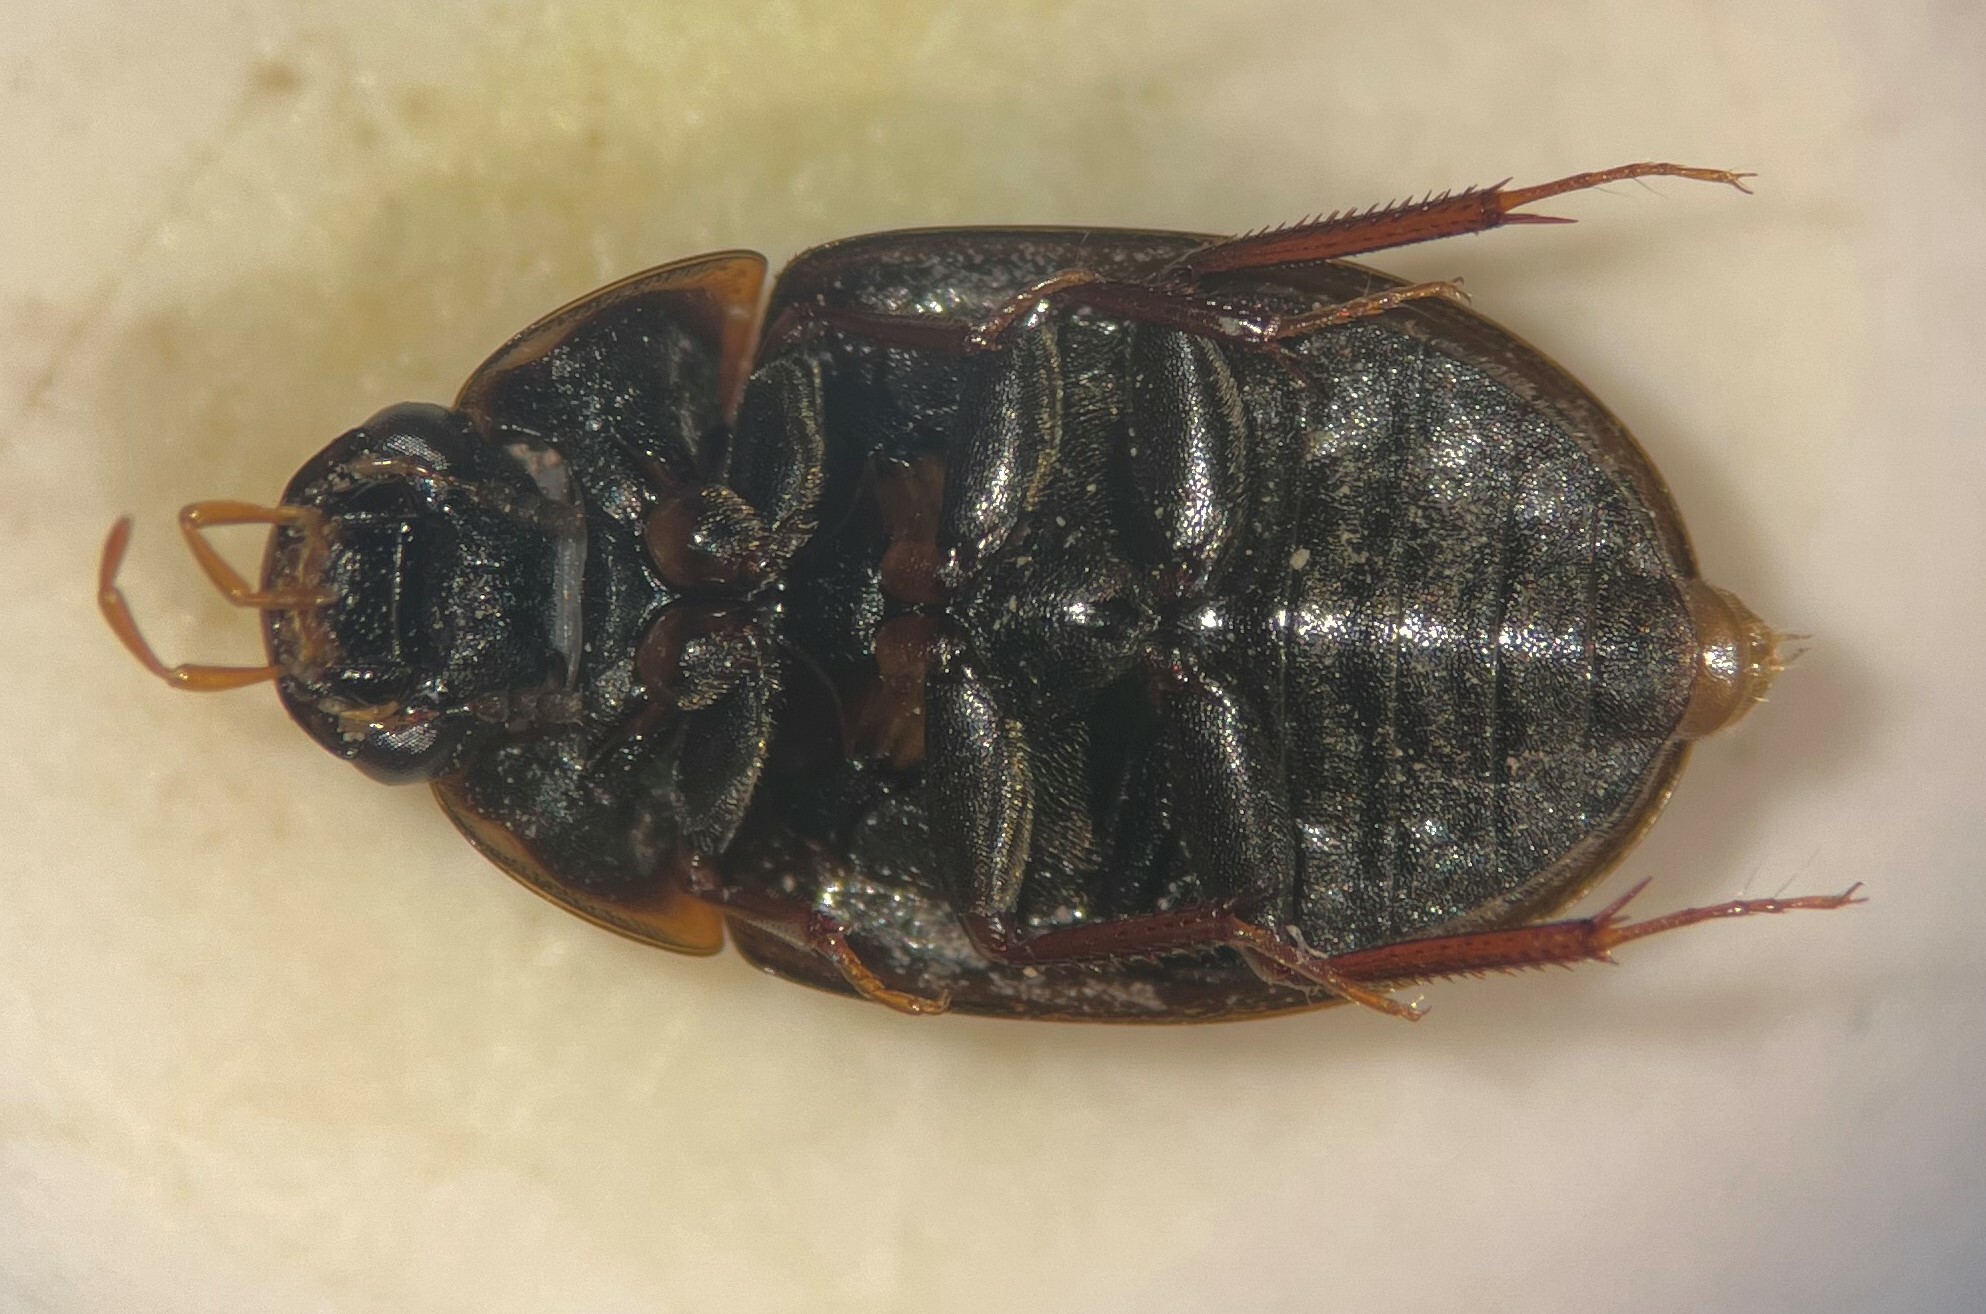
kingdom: Animalia
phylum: Arthropoda
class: Insecta
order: Coleoptera
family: Hydrophilidae
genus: Cymbiodyta
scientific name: Cymbiodyta chamberlaini
